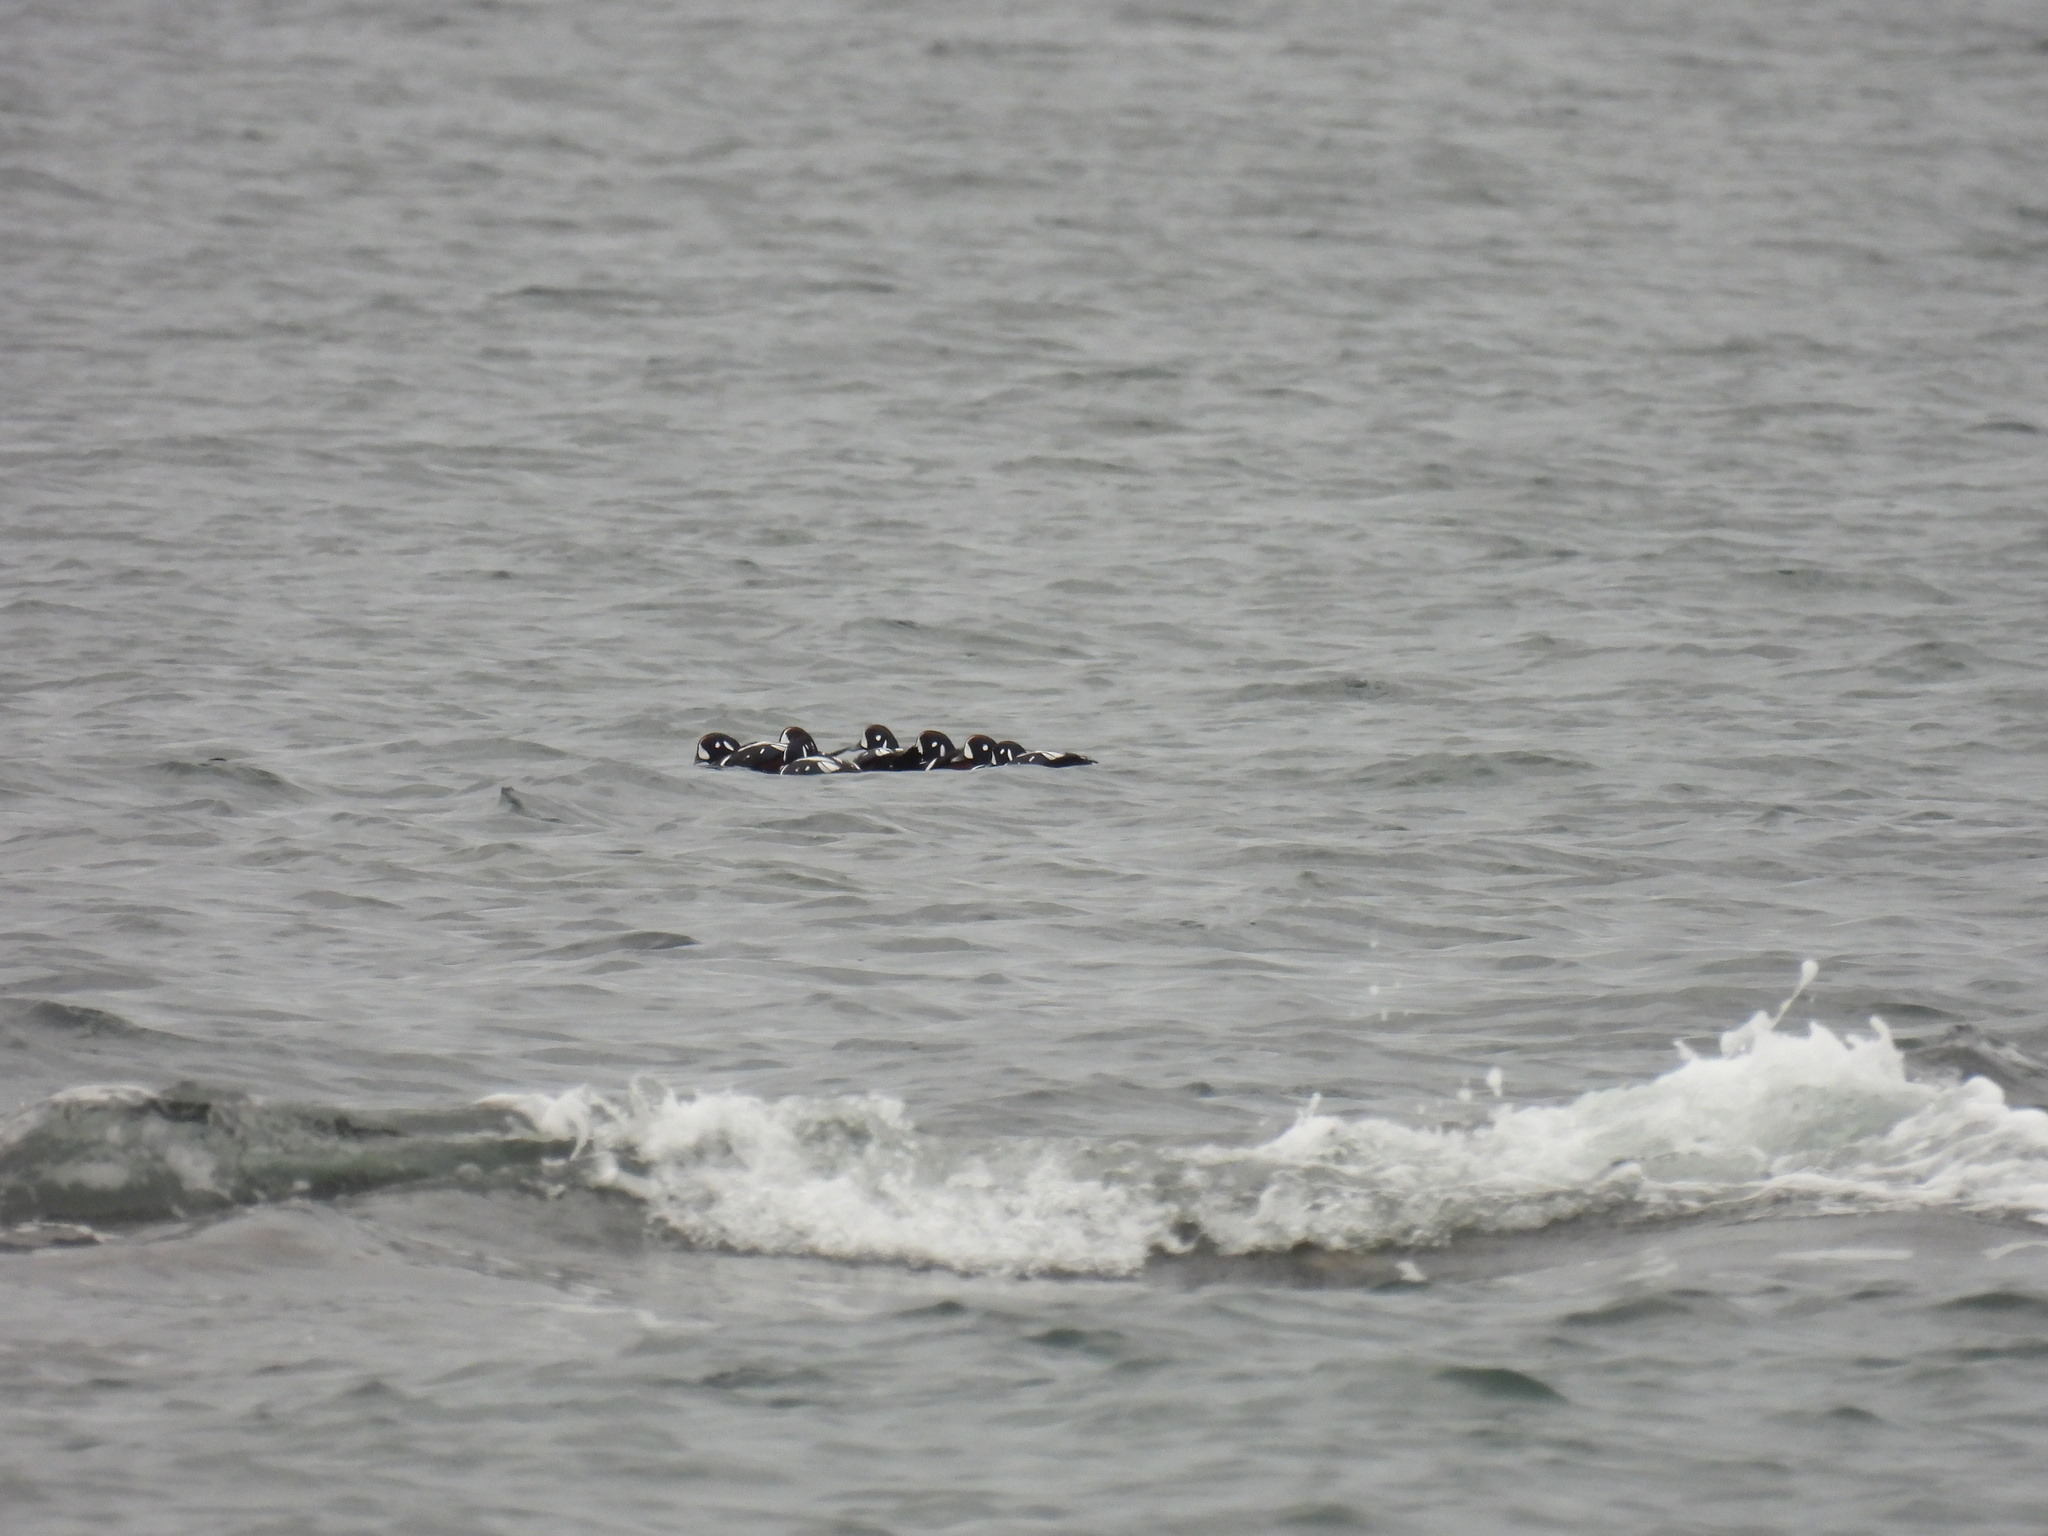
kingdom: Animalia
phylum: Chordata
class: Aves
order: Anseriformes
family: Anatidae
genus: Histrionicus
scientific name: Histrionicus histrionicus
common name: Harlequin duck
